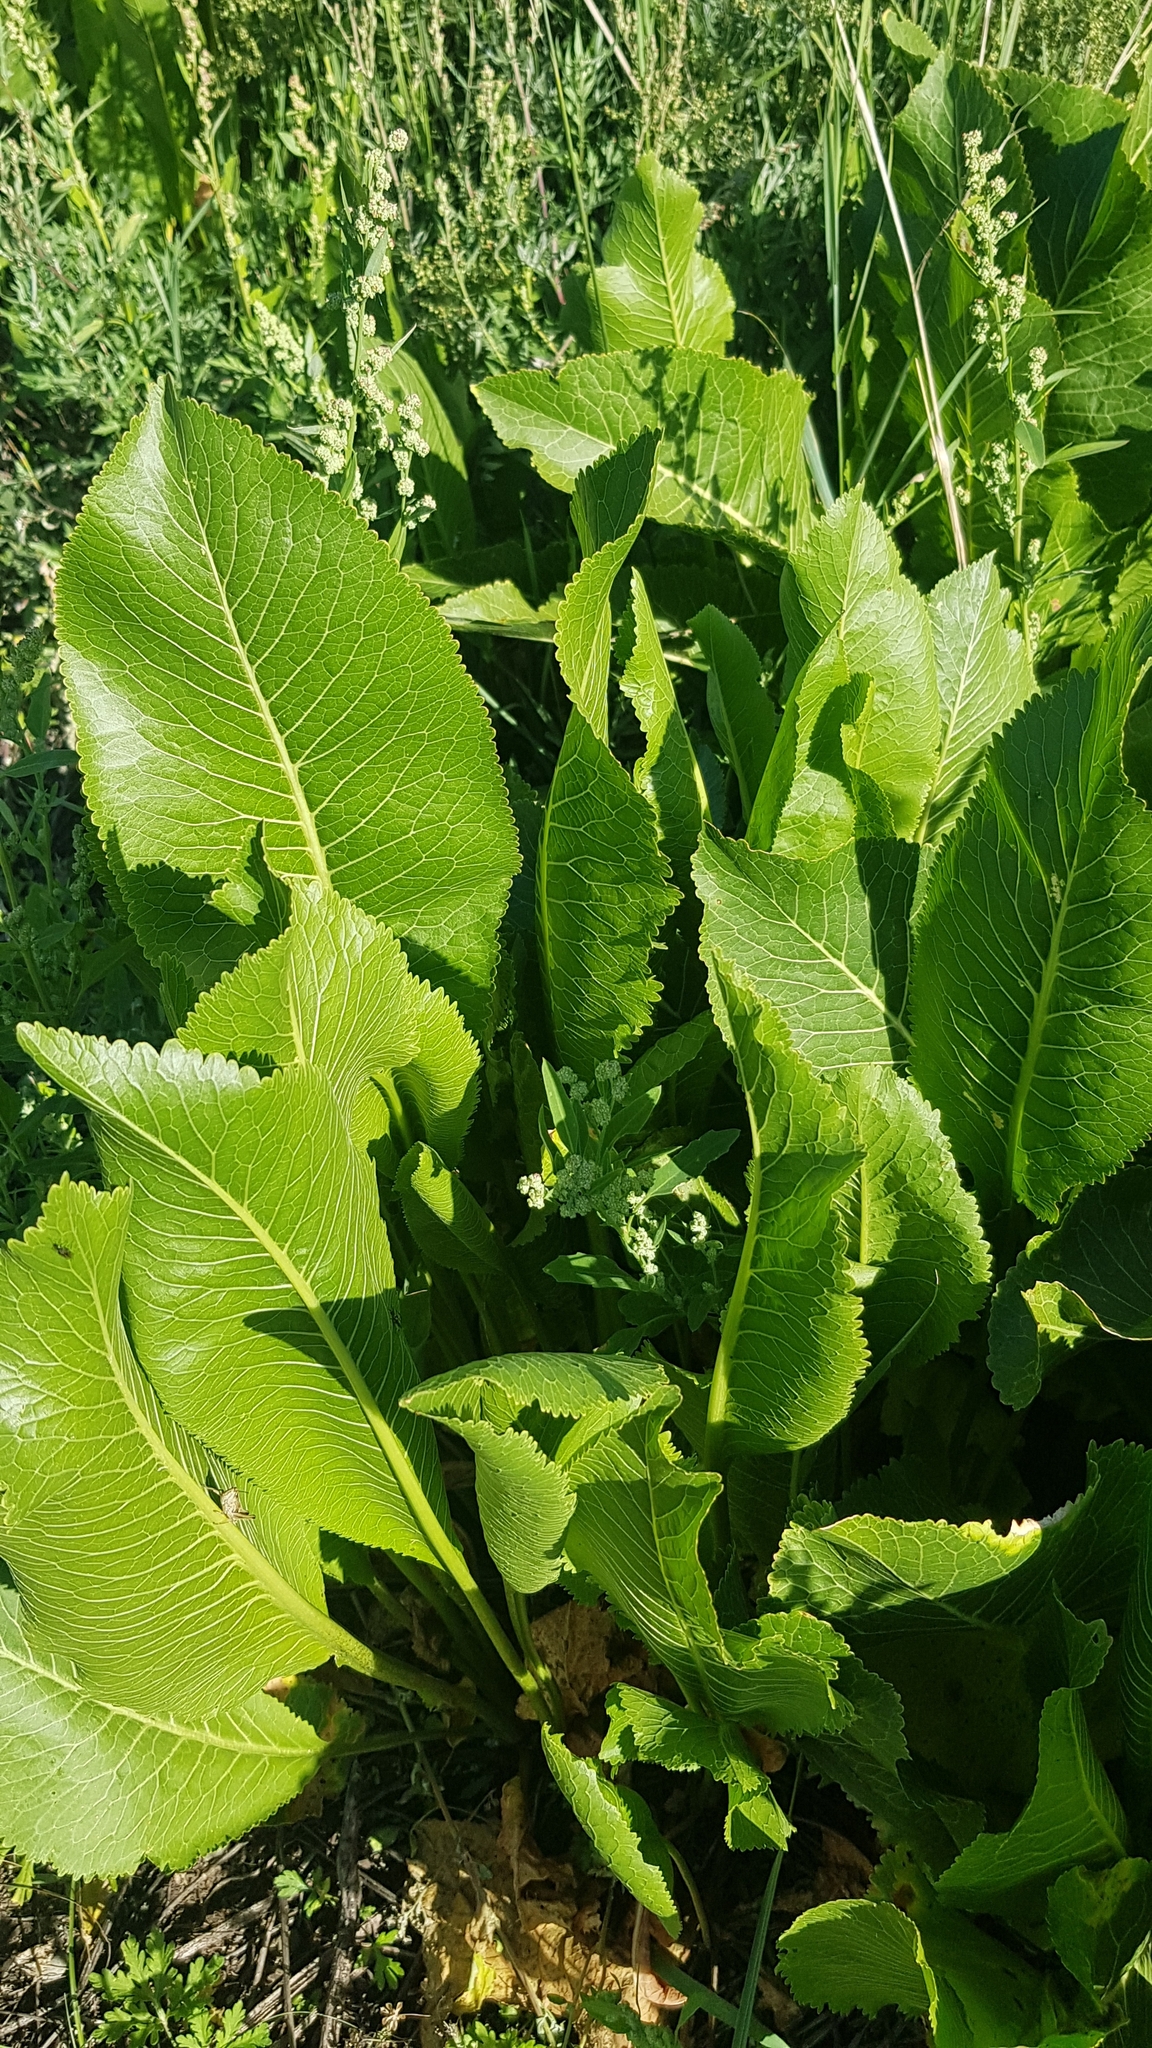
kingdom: Plantae
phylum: Tracheophyta
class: Magnoliopsida
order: Brassicales
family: Brassicaceae
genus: Armoracia
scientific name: Armoracia rusticana
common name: Horseradish
